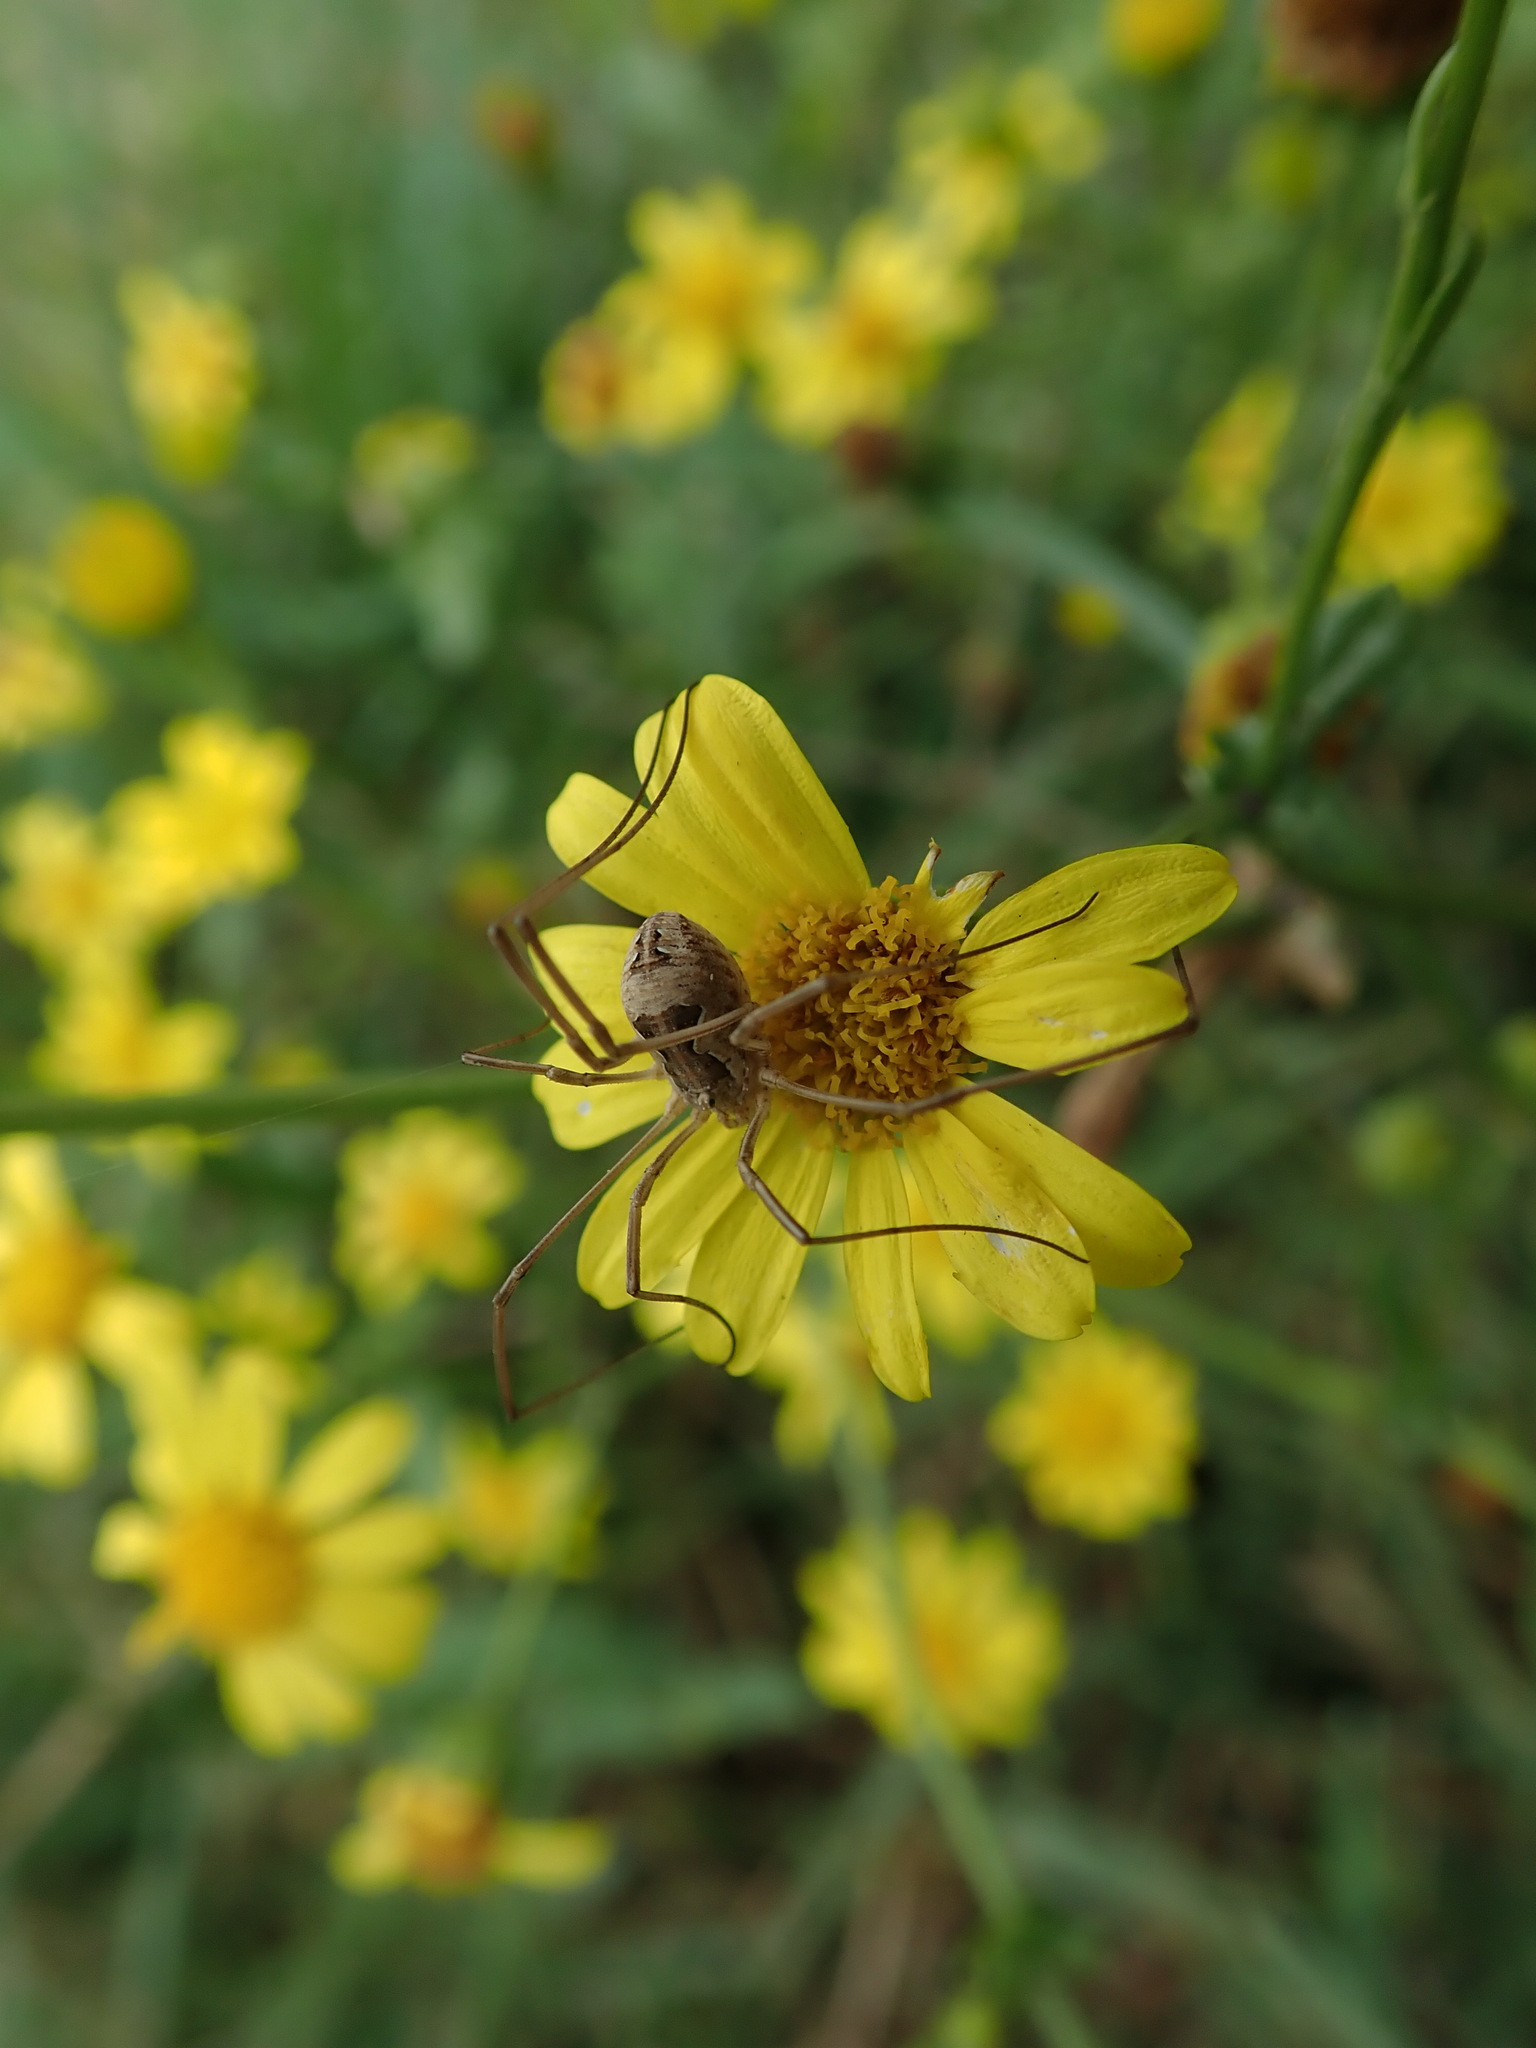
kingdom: Animalia
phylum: Arthropoda
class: Arachnida
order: Opiliones
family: Phalangiidae
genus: Metaphalangium
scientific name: Metaphalangium cirtanum
